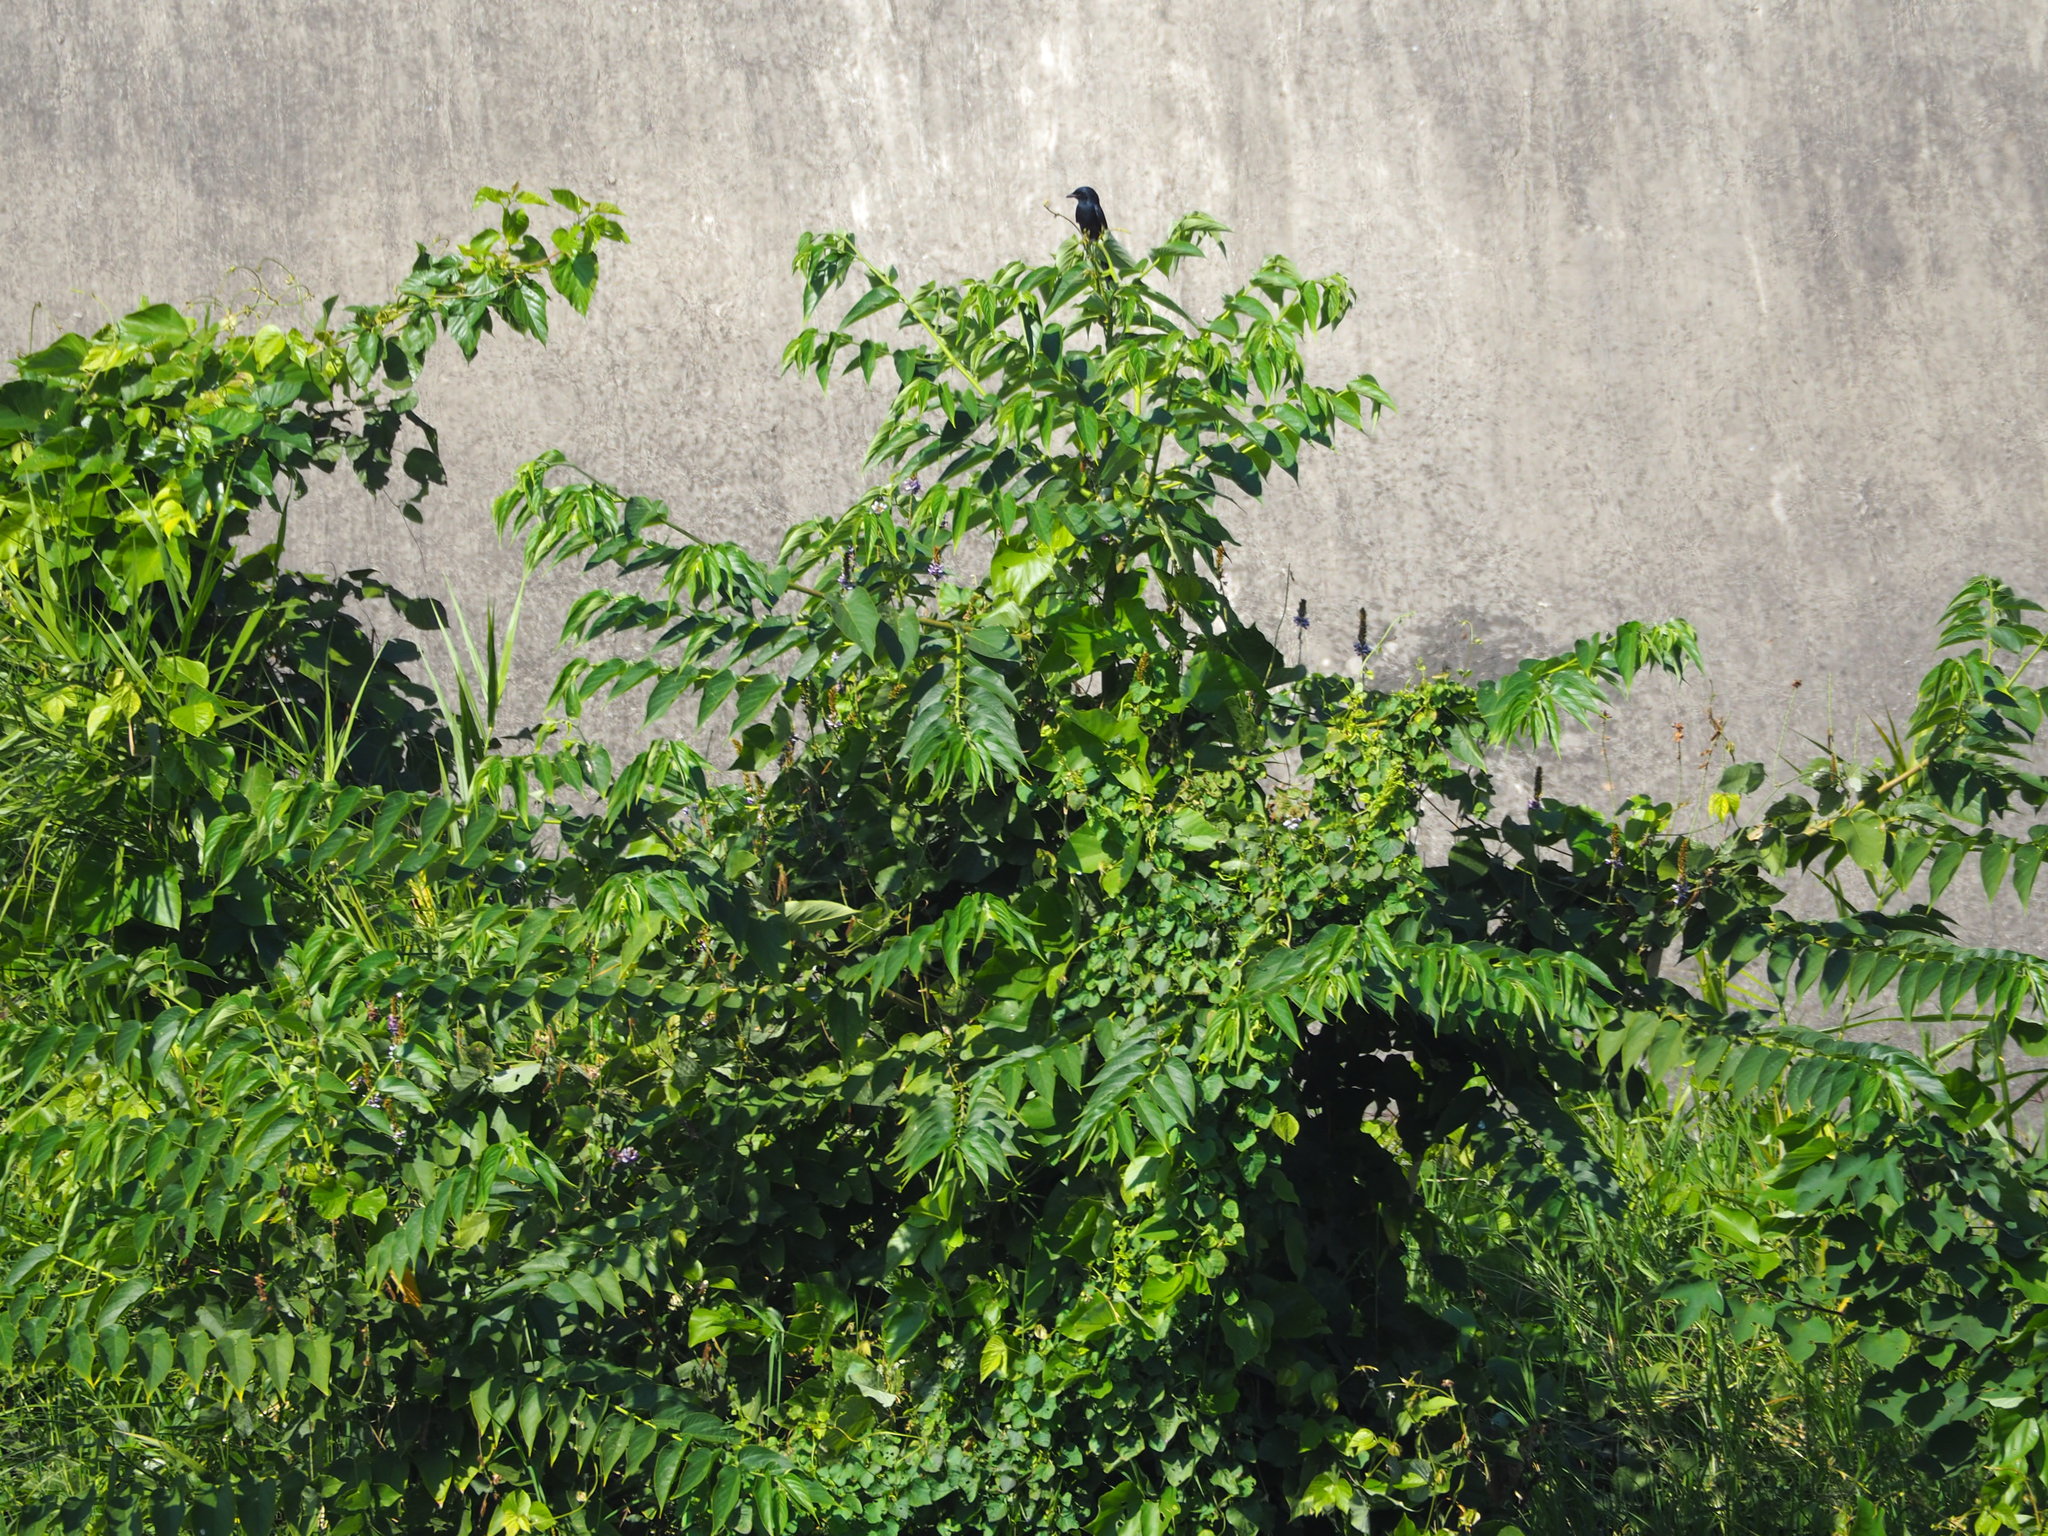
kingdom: Plantae
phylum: Tracheophyta
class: Magnoliopsida
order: Rosales
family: Cannabaceae
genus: Trema
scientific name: Trema orientale
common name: Indian charcoal tree
